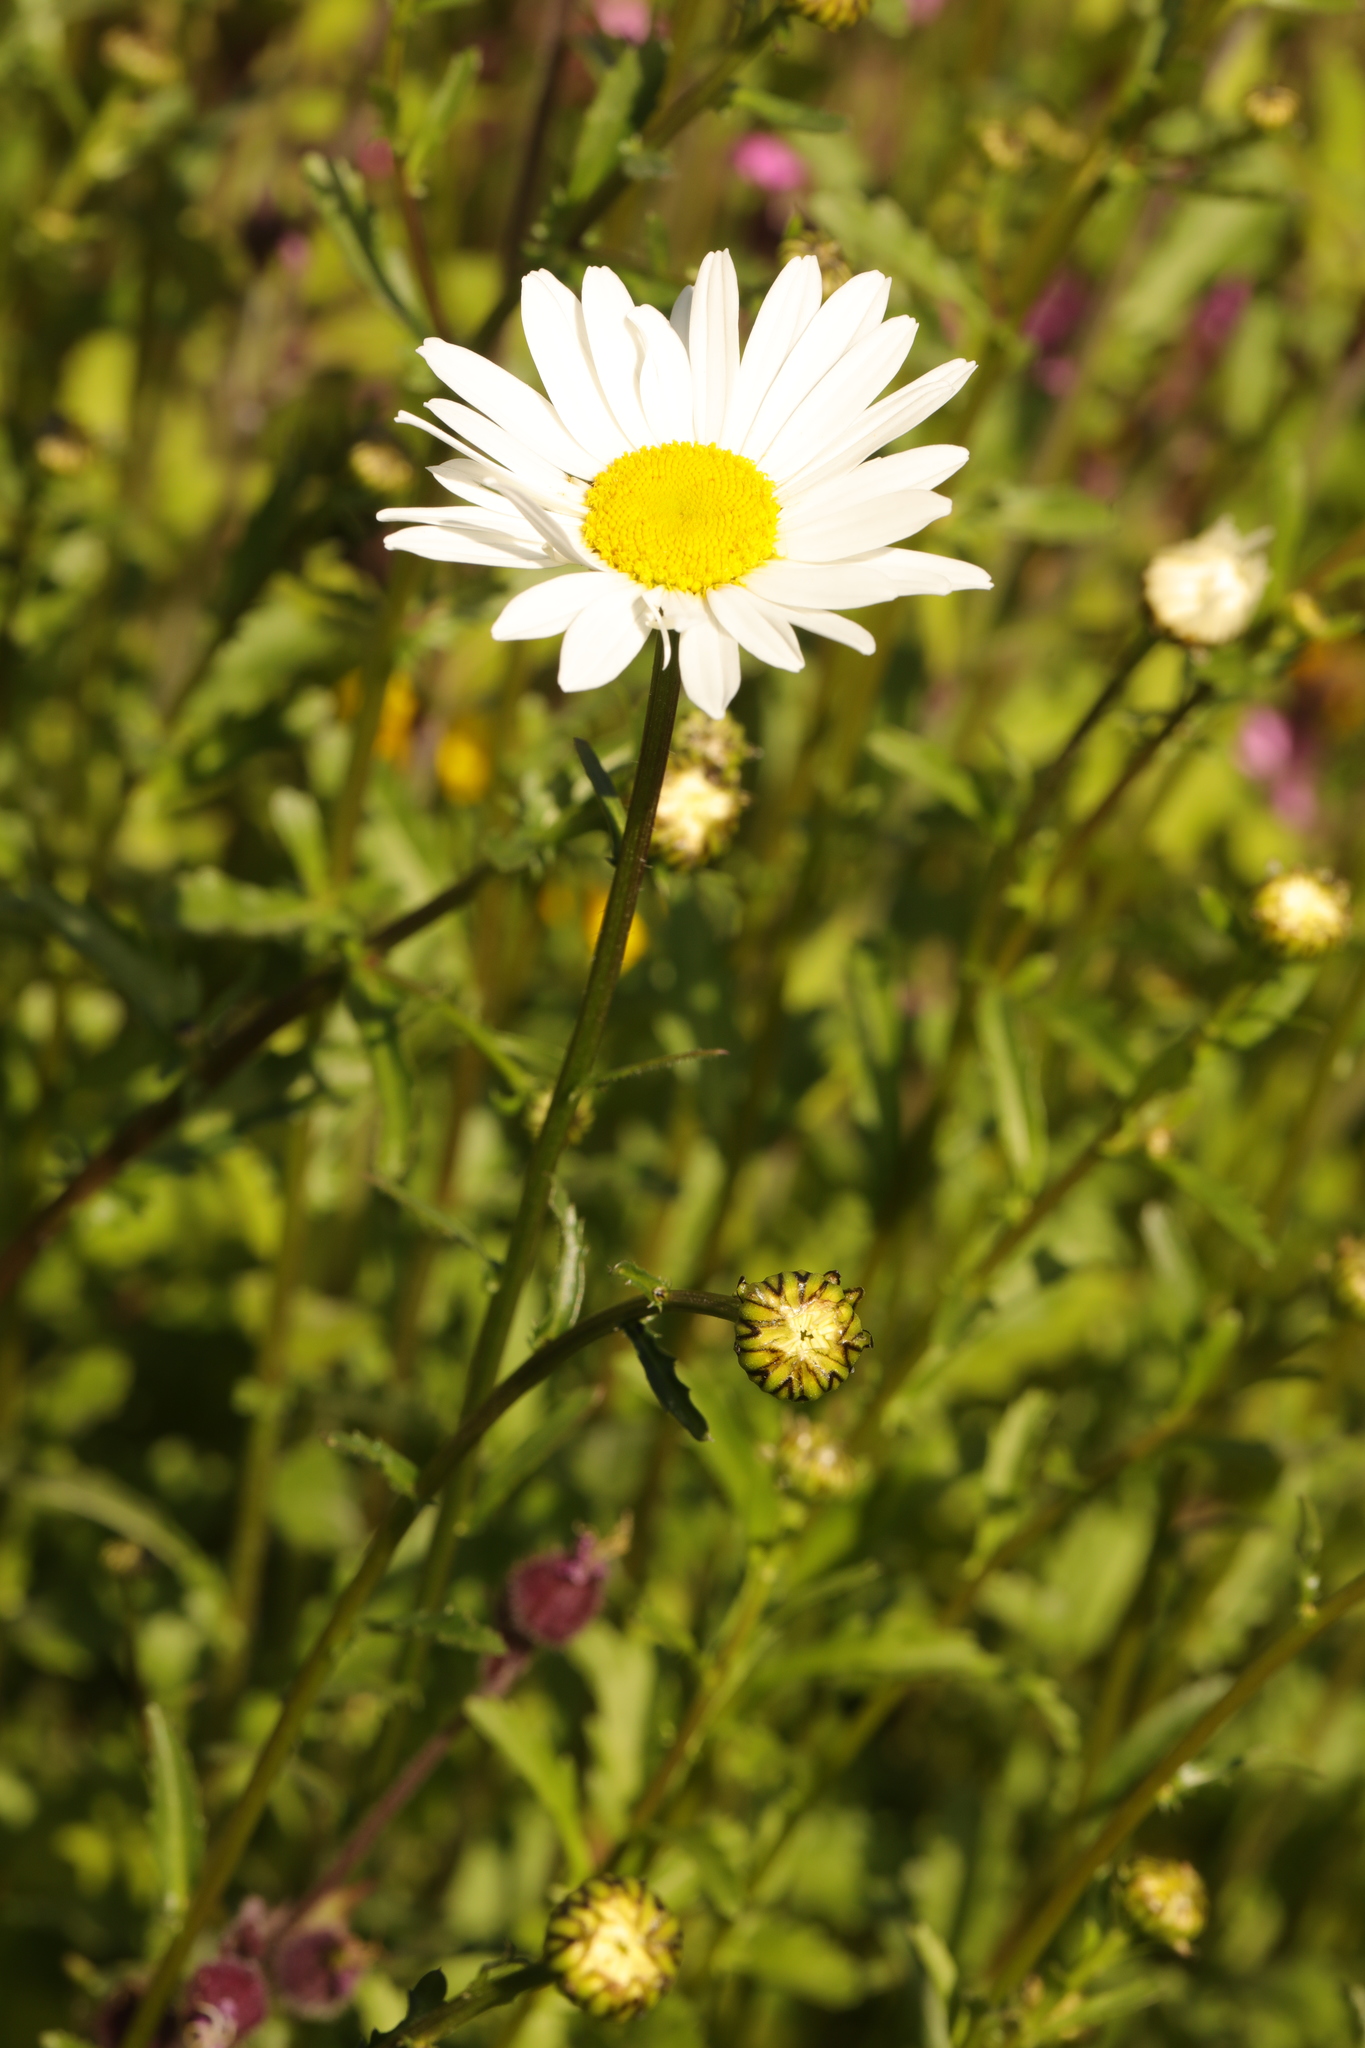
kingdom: Plantae
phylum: Tracheophyta
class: Magnoliopsida
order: Asterales
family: Asteraceae
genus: Leucanthemum
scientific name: Leucanthemum vulgare
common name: Oxeye daisy
